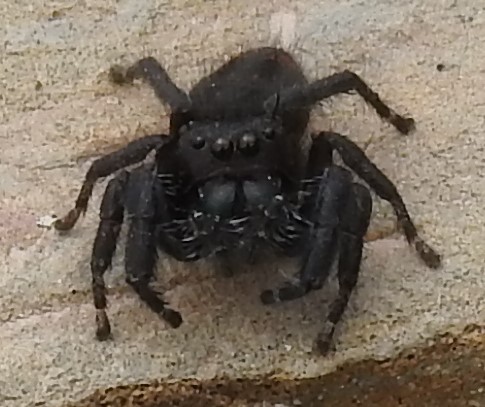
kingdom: Animalia
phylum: Arthropoda
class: Arachnida
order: Araneae
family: Salticidae
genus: Phidippus
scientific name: Phidippus carneus
